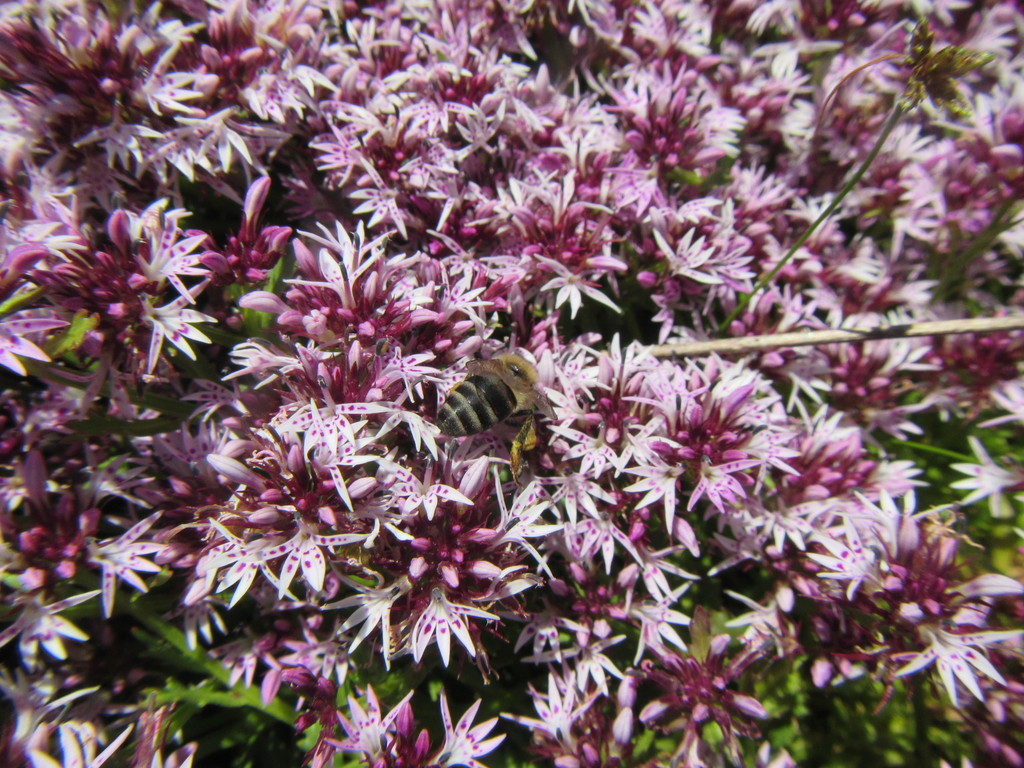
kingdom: Plantae
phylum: Tracheophyta
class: Magnoliopsida
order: Asterales
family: Campanulaceae
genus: Lobelia
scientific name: Lobelia jasionoides
